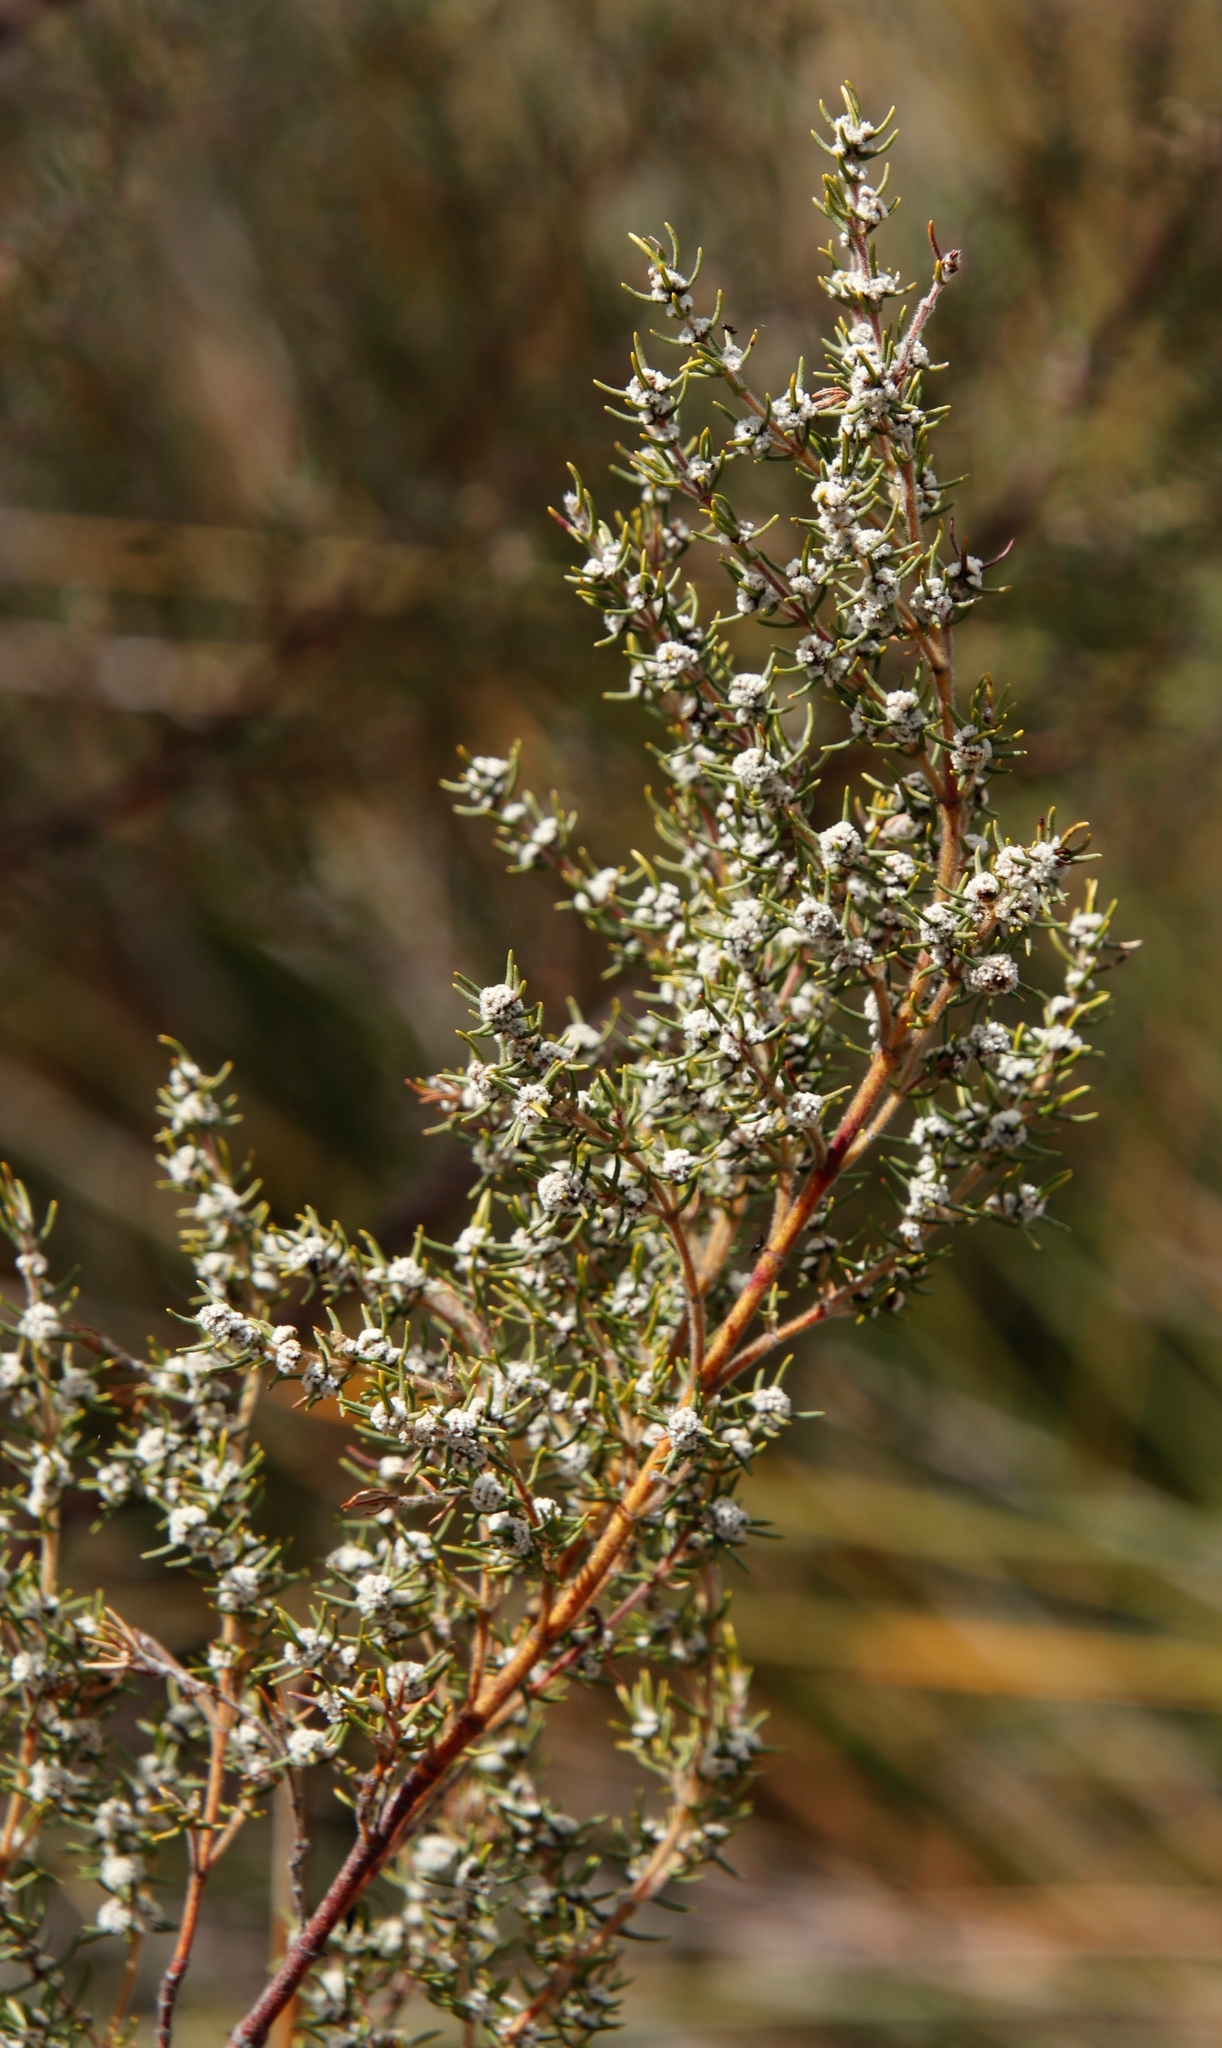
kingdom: Plantae
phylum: Tracheophyta
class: Magnoliopsida
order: Cornales
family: Grubbiaceae
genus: Grubbia
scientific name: Grubbia rosmarinifolia
